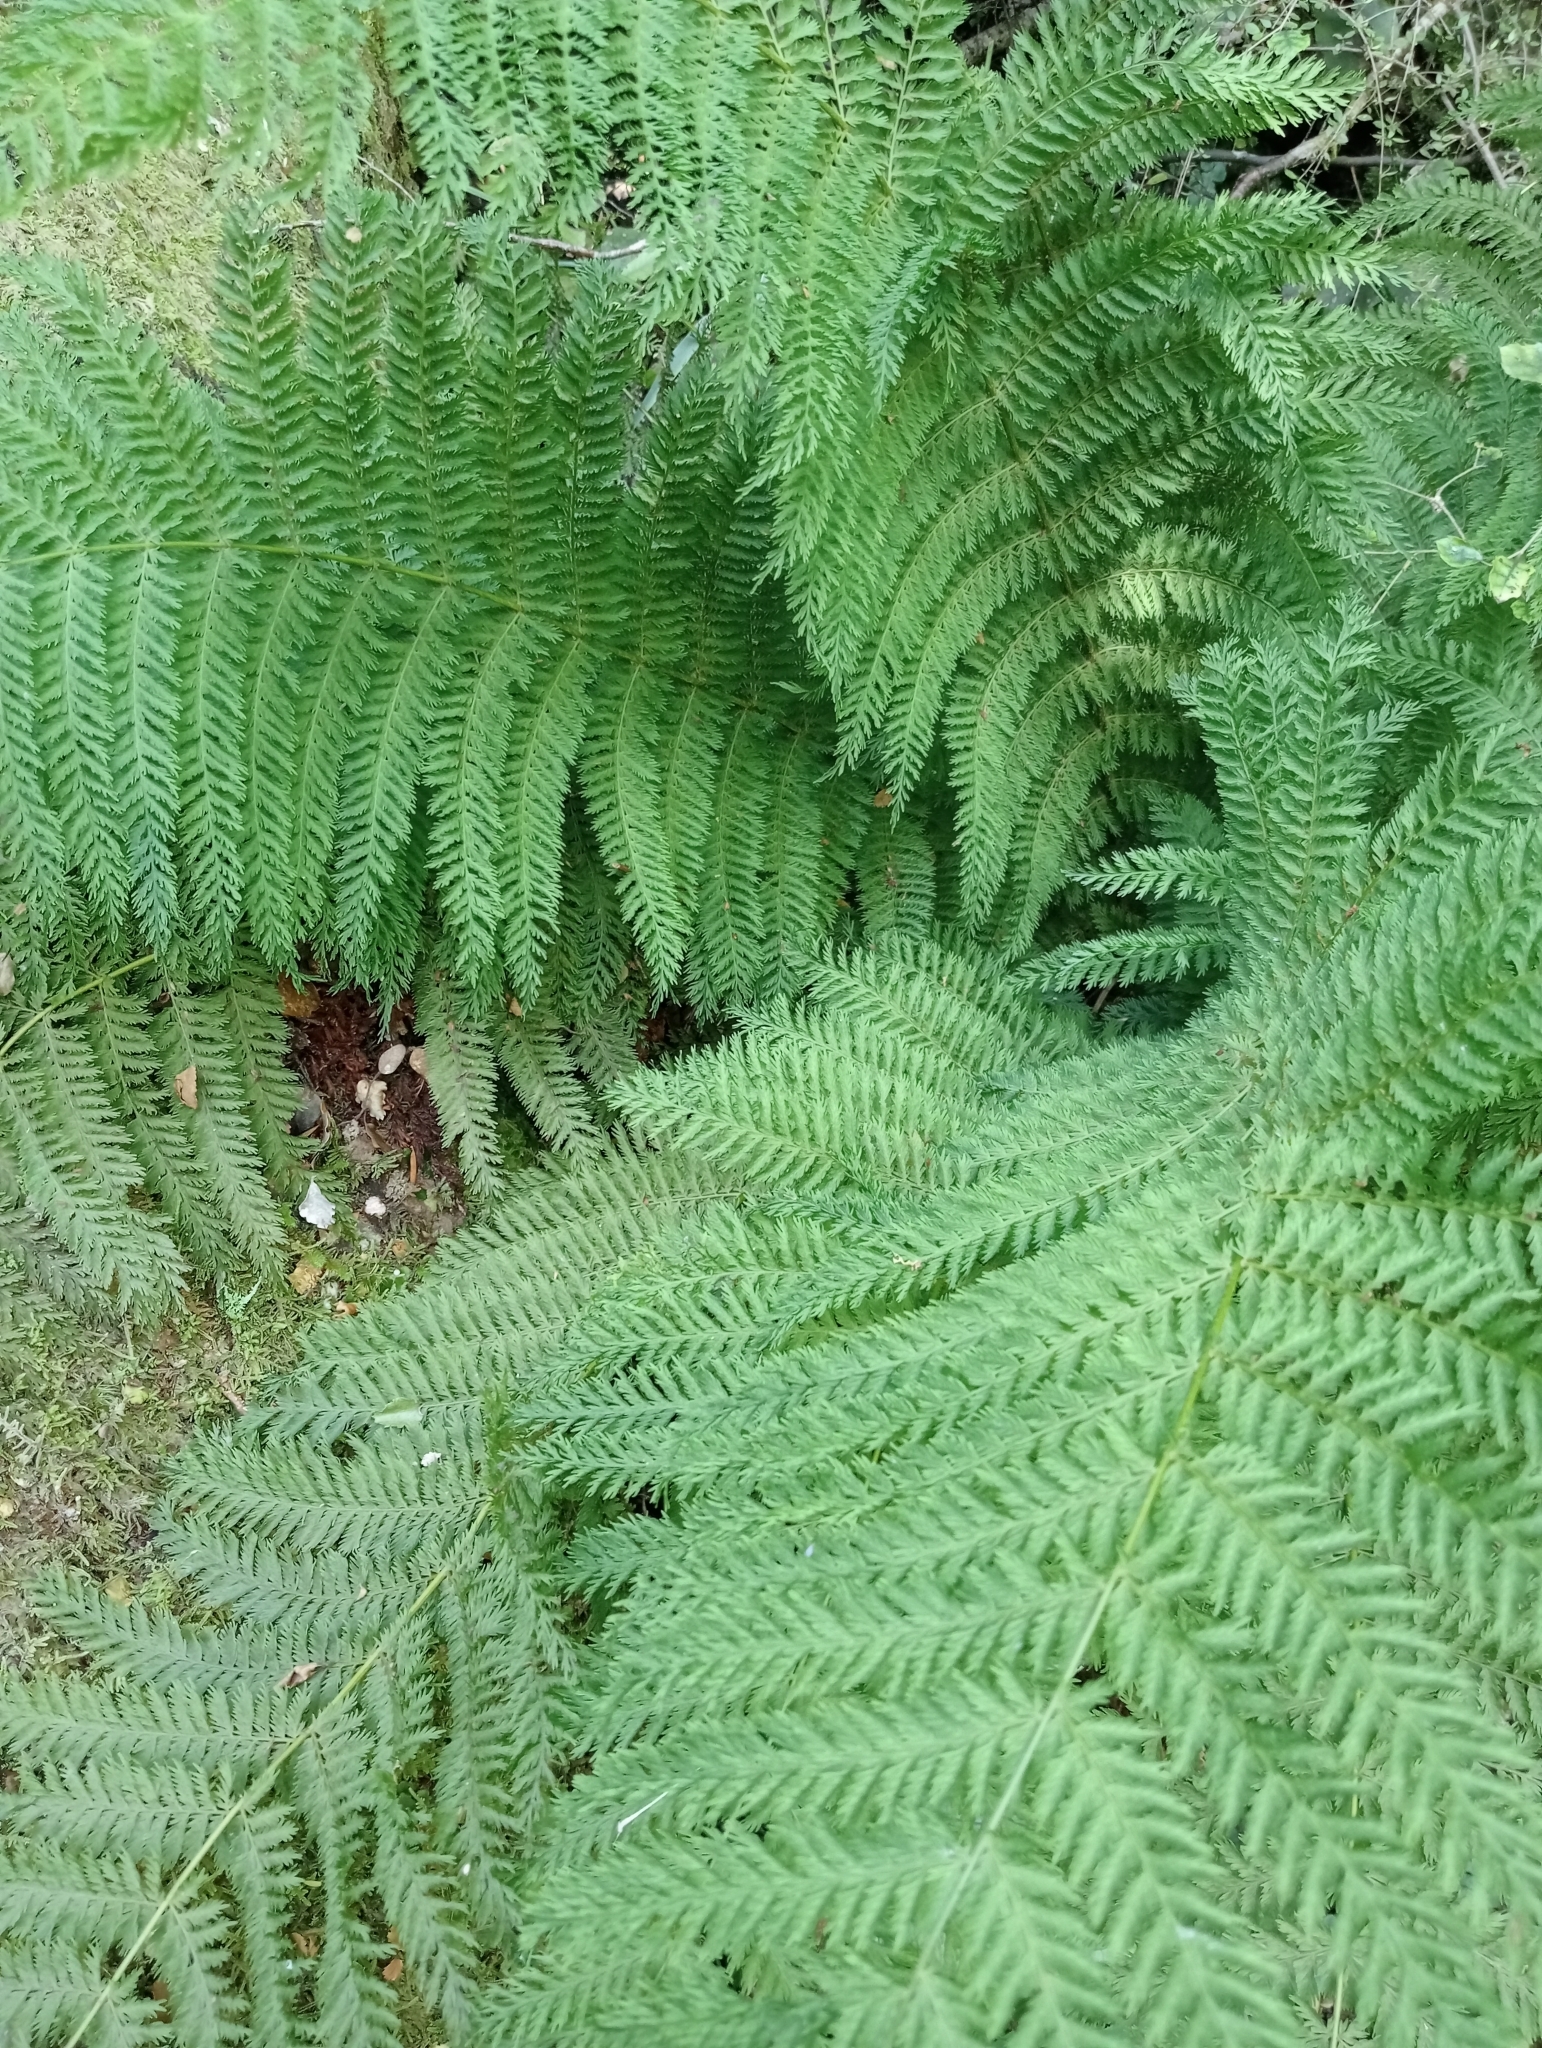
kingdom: Plantae
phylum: Tracheophyta
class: Polypodiopsida
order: Osmundales
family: Osmundaceae
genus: Leptopteris
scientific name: Leptopteris hymenophylloides
